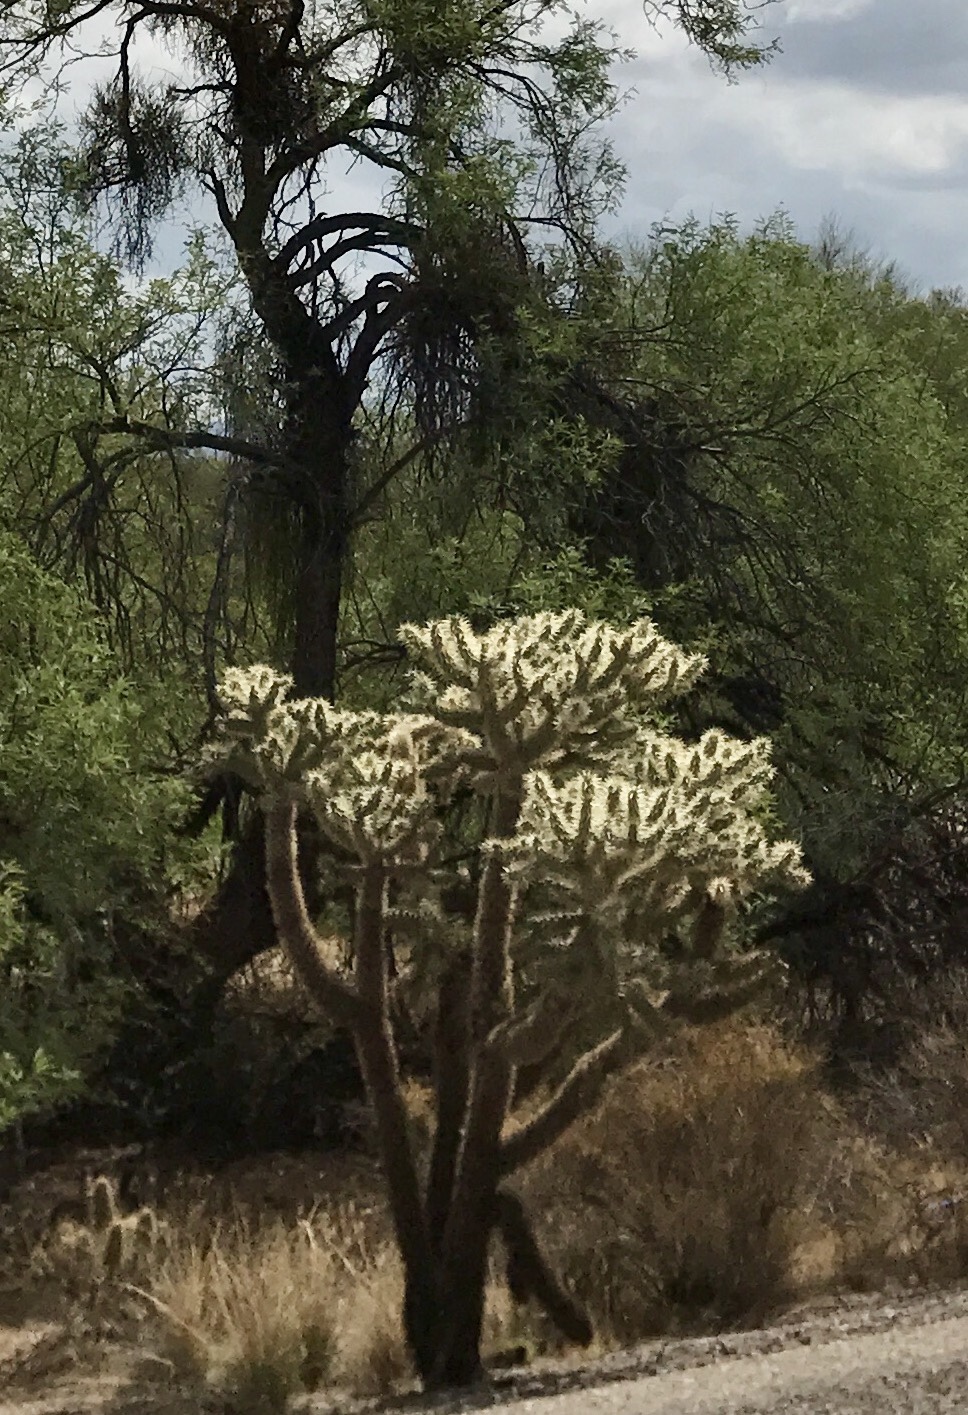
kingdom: Plantae
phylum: Tracheophyta
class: Magnoliopsida
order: Caryophyllales
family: Cactaceae
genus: Cylindropuntia
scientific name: Cylindropuntia fulgida
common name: Jumping cholla
